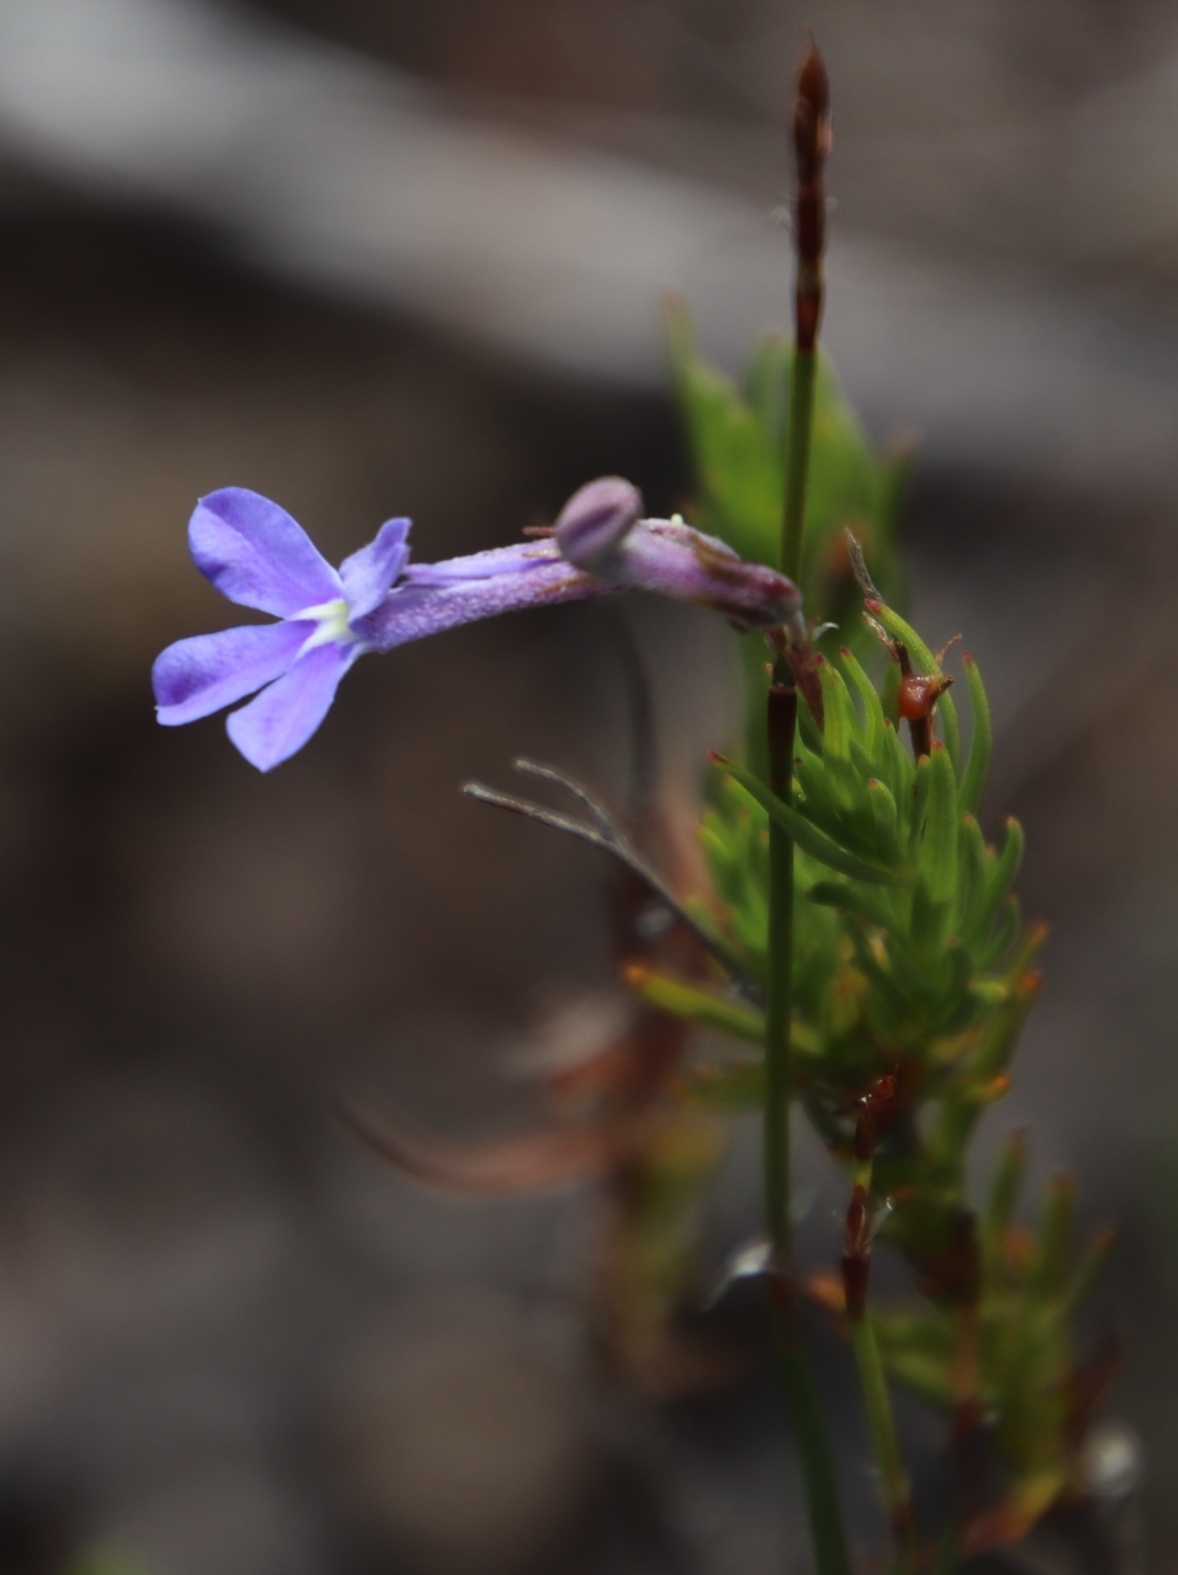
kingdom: Plantae
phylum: Tracheophyta
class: Magnoliopsida
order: Asterales
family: Campanulaceae
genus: Lobelia
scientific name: Lobelia pinifolia
